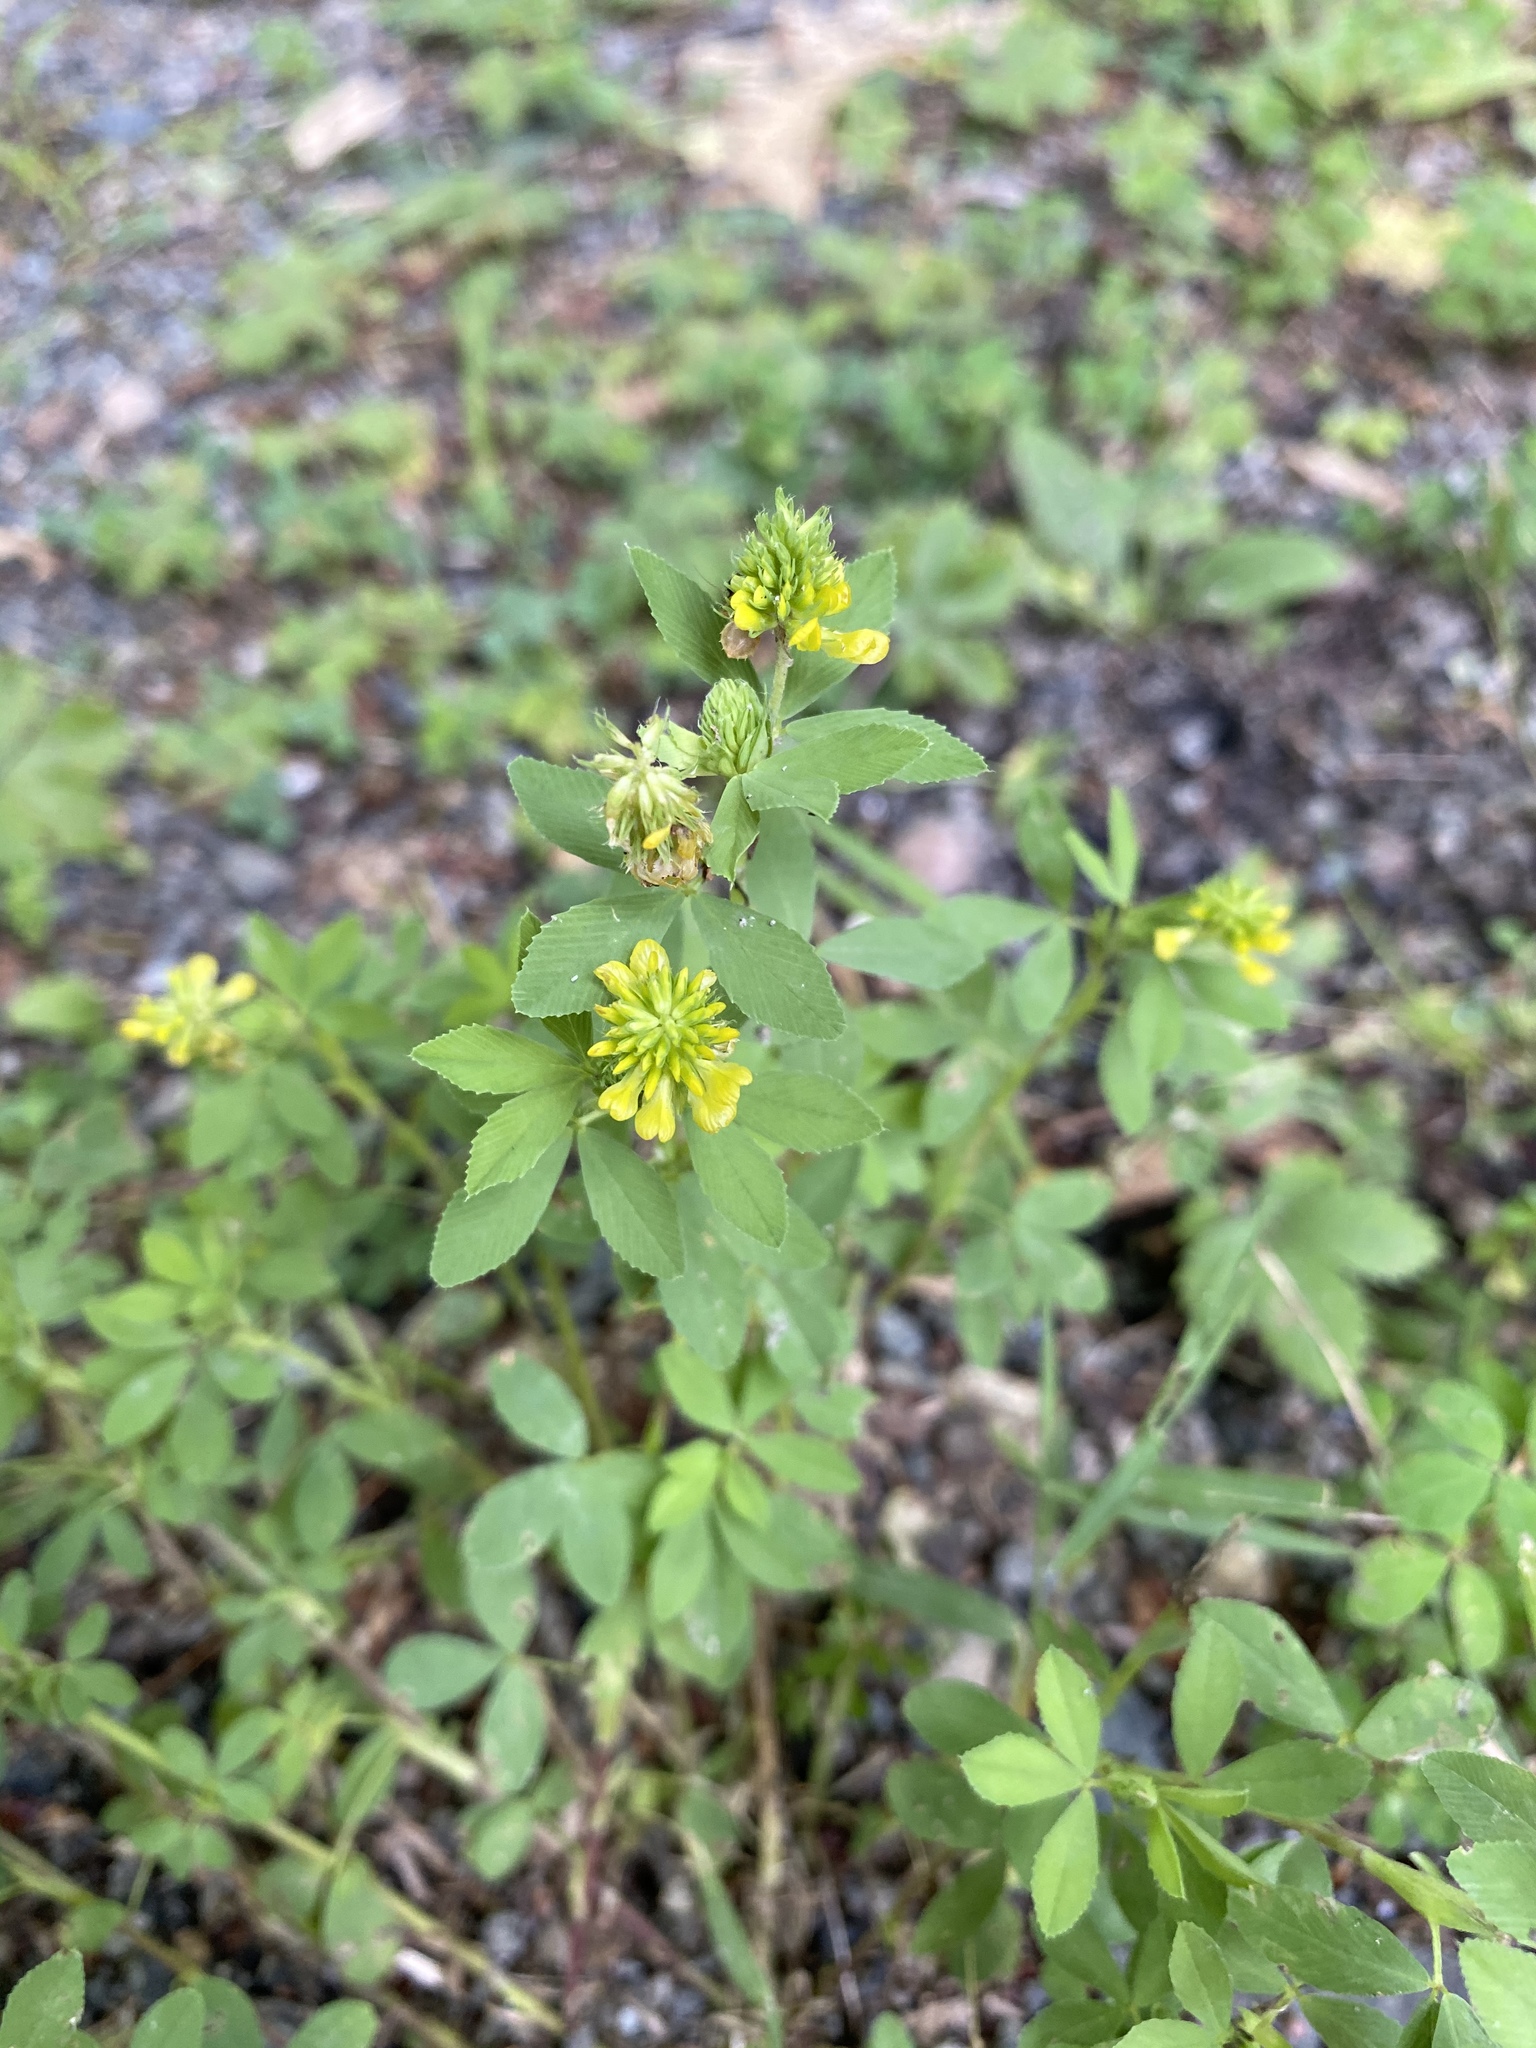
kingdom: Plantae
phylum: Tracheophyta
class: Magnoliopsida
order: Fabales
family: Fabaceae
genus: Trifolium
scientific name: Trifolium aureum
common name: Golden clover
